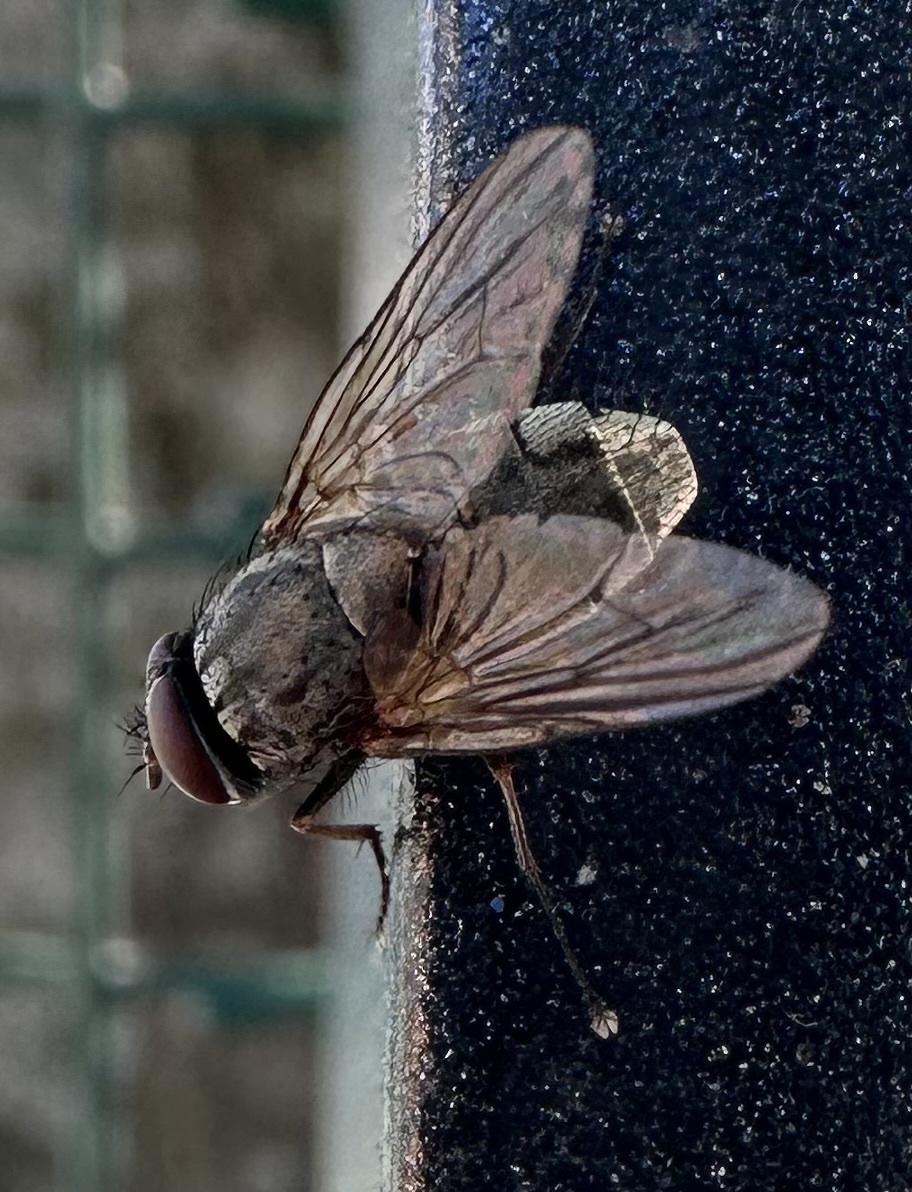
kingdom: Animalia
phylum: Arthropoda
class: Insecta
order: Diptera
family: Muscidae
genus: Muscina
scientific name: Muscina stabulans
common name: False stable fly
